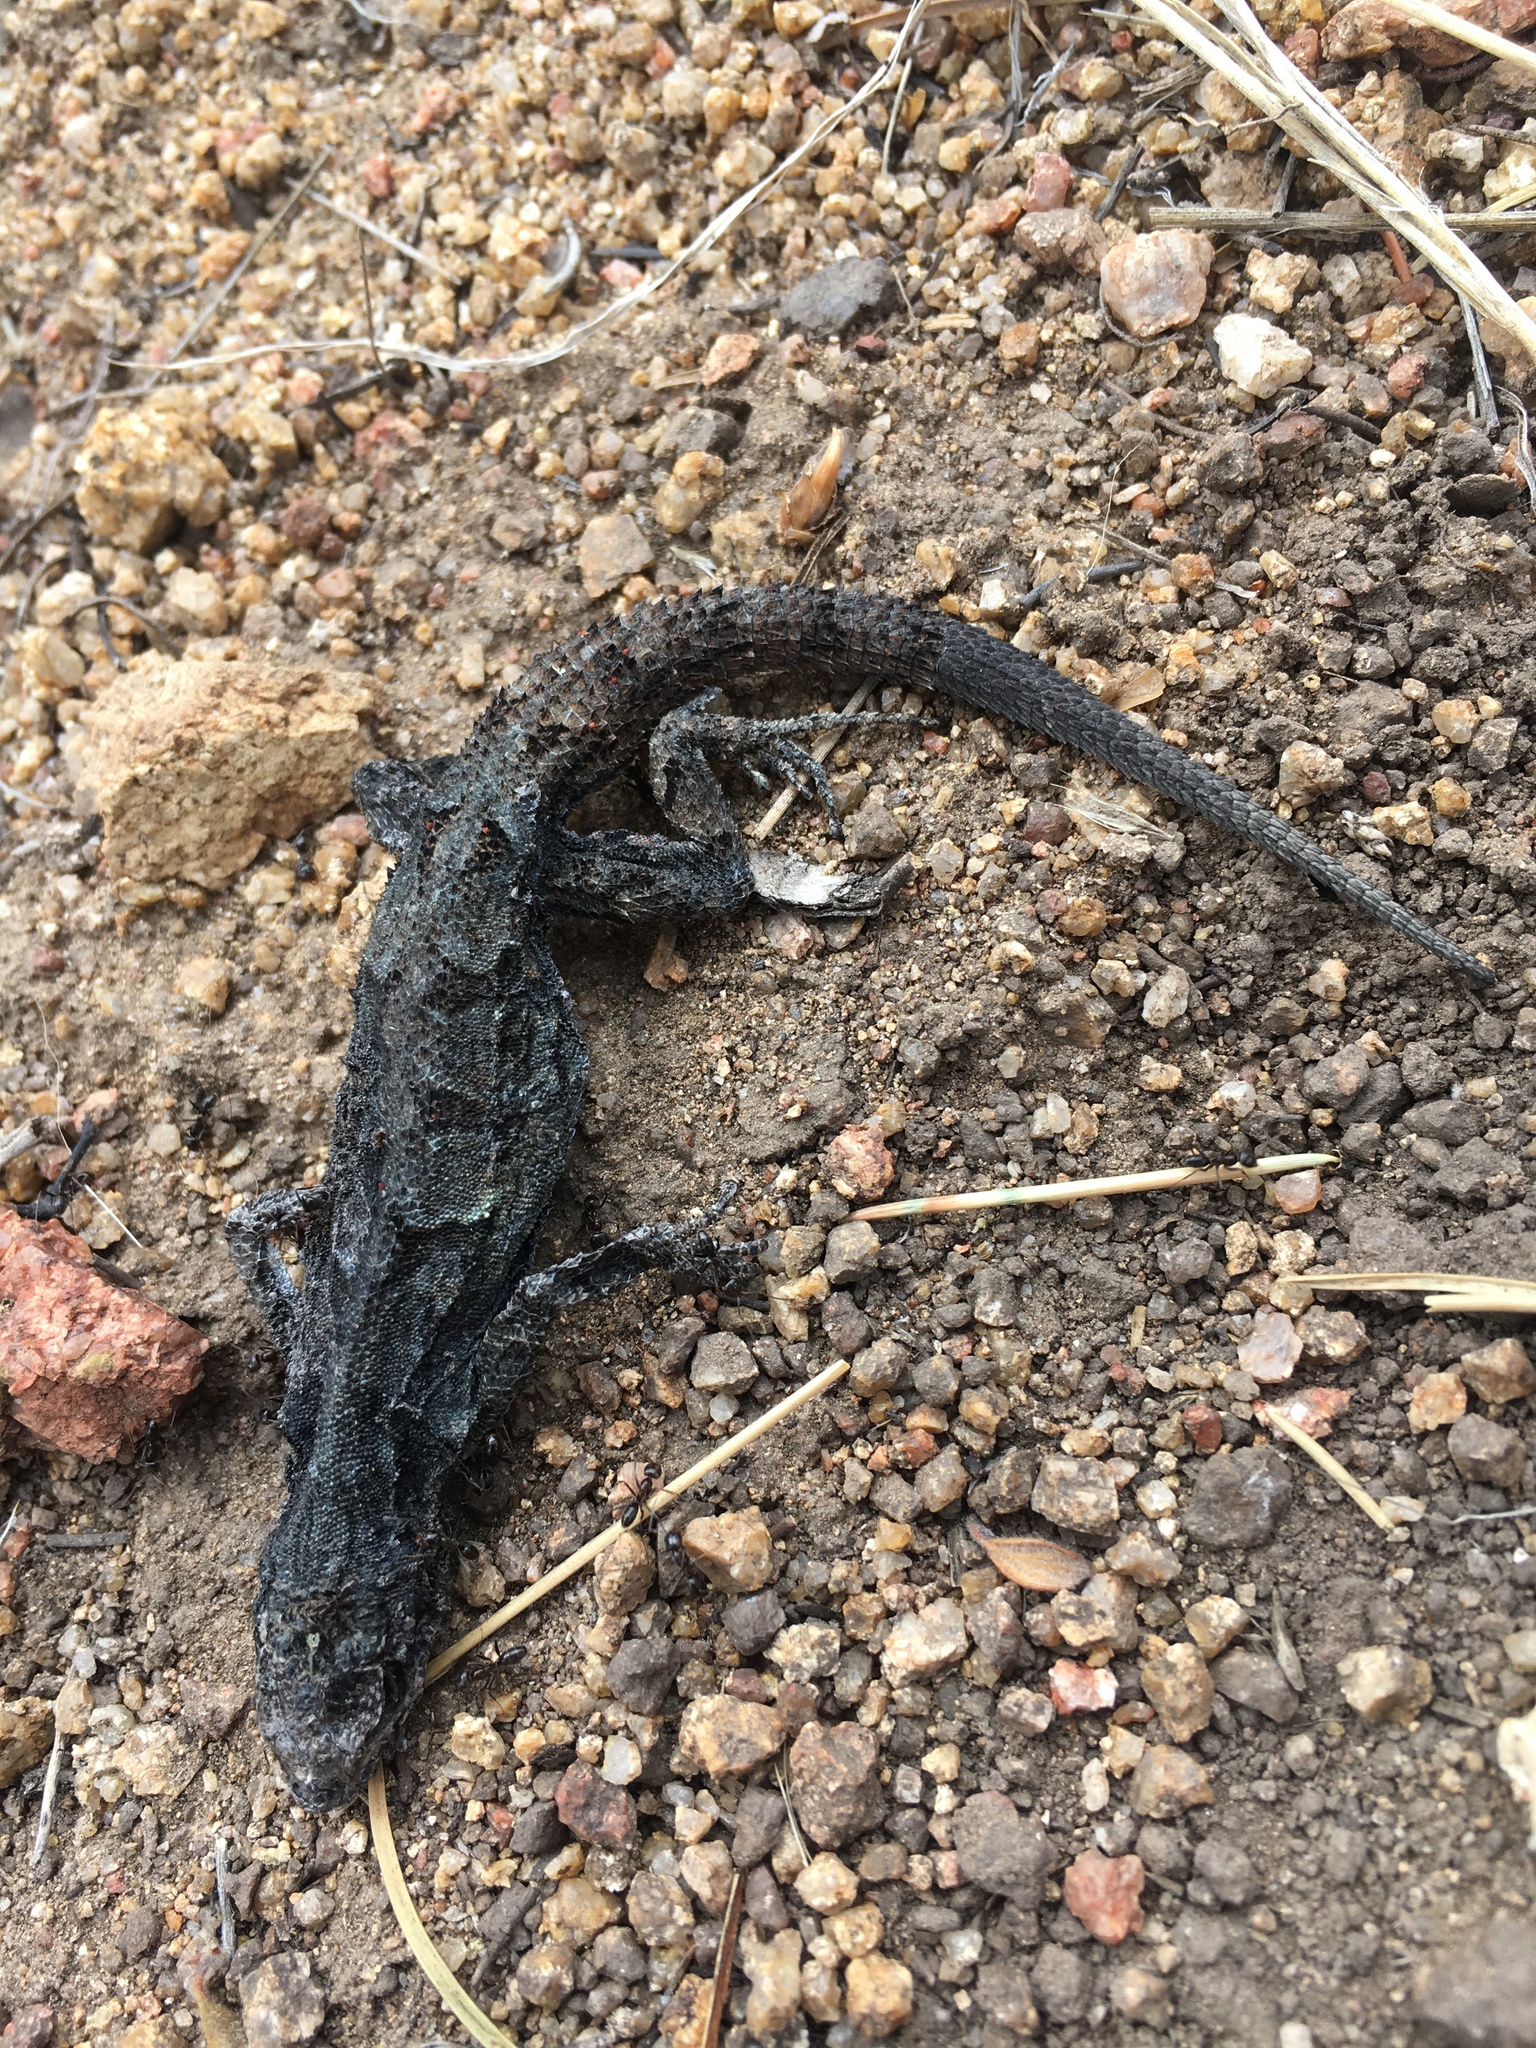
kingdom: Animalia
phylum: Chordata
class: Squamata
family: Phrynosomatidae
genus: Urosaurus
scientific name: Urosaurus ornatus
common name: Ornate tree lizard
